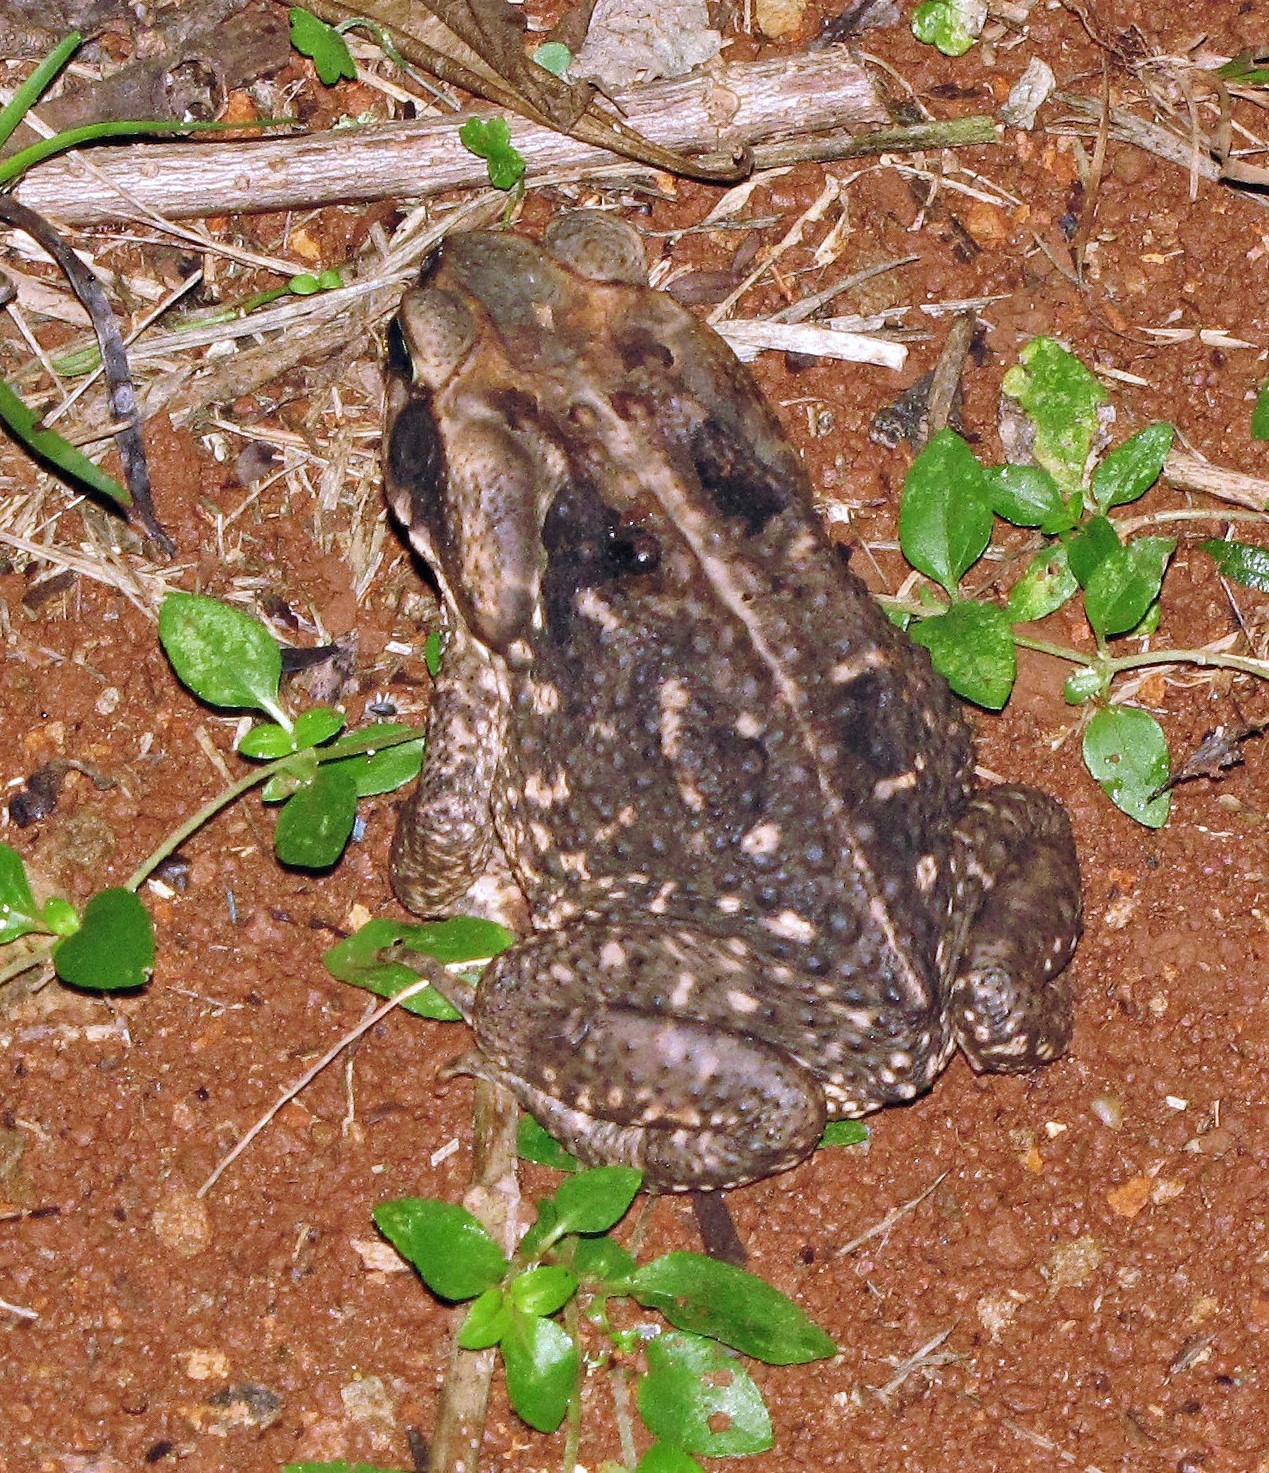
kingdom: Animalia
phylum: Chordata
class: Amphibia
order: Anura
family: Bufonidae
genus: Rhinella
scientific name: Rhinella diptycha
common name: Cope's toad
